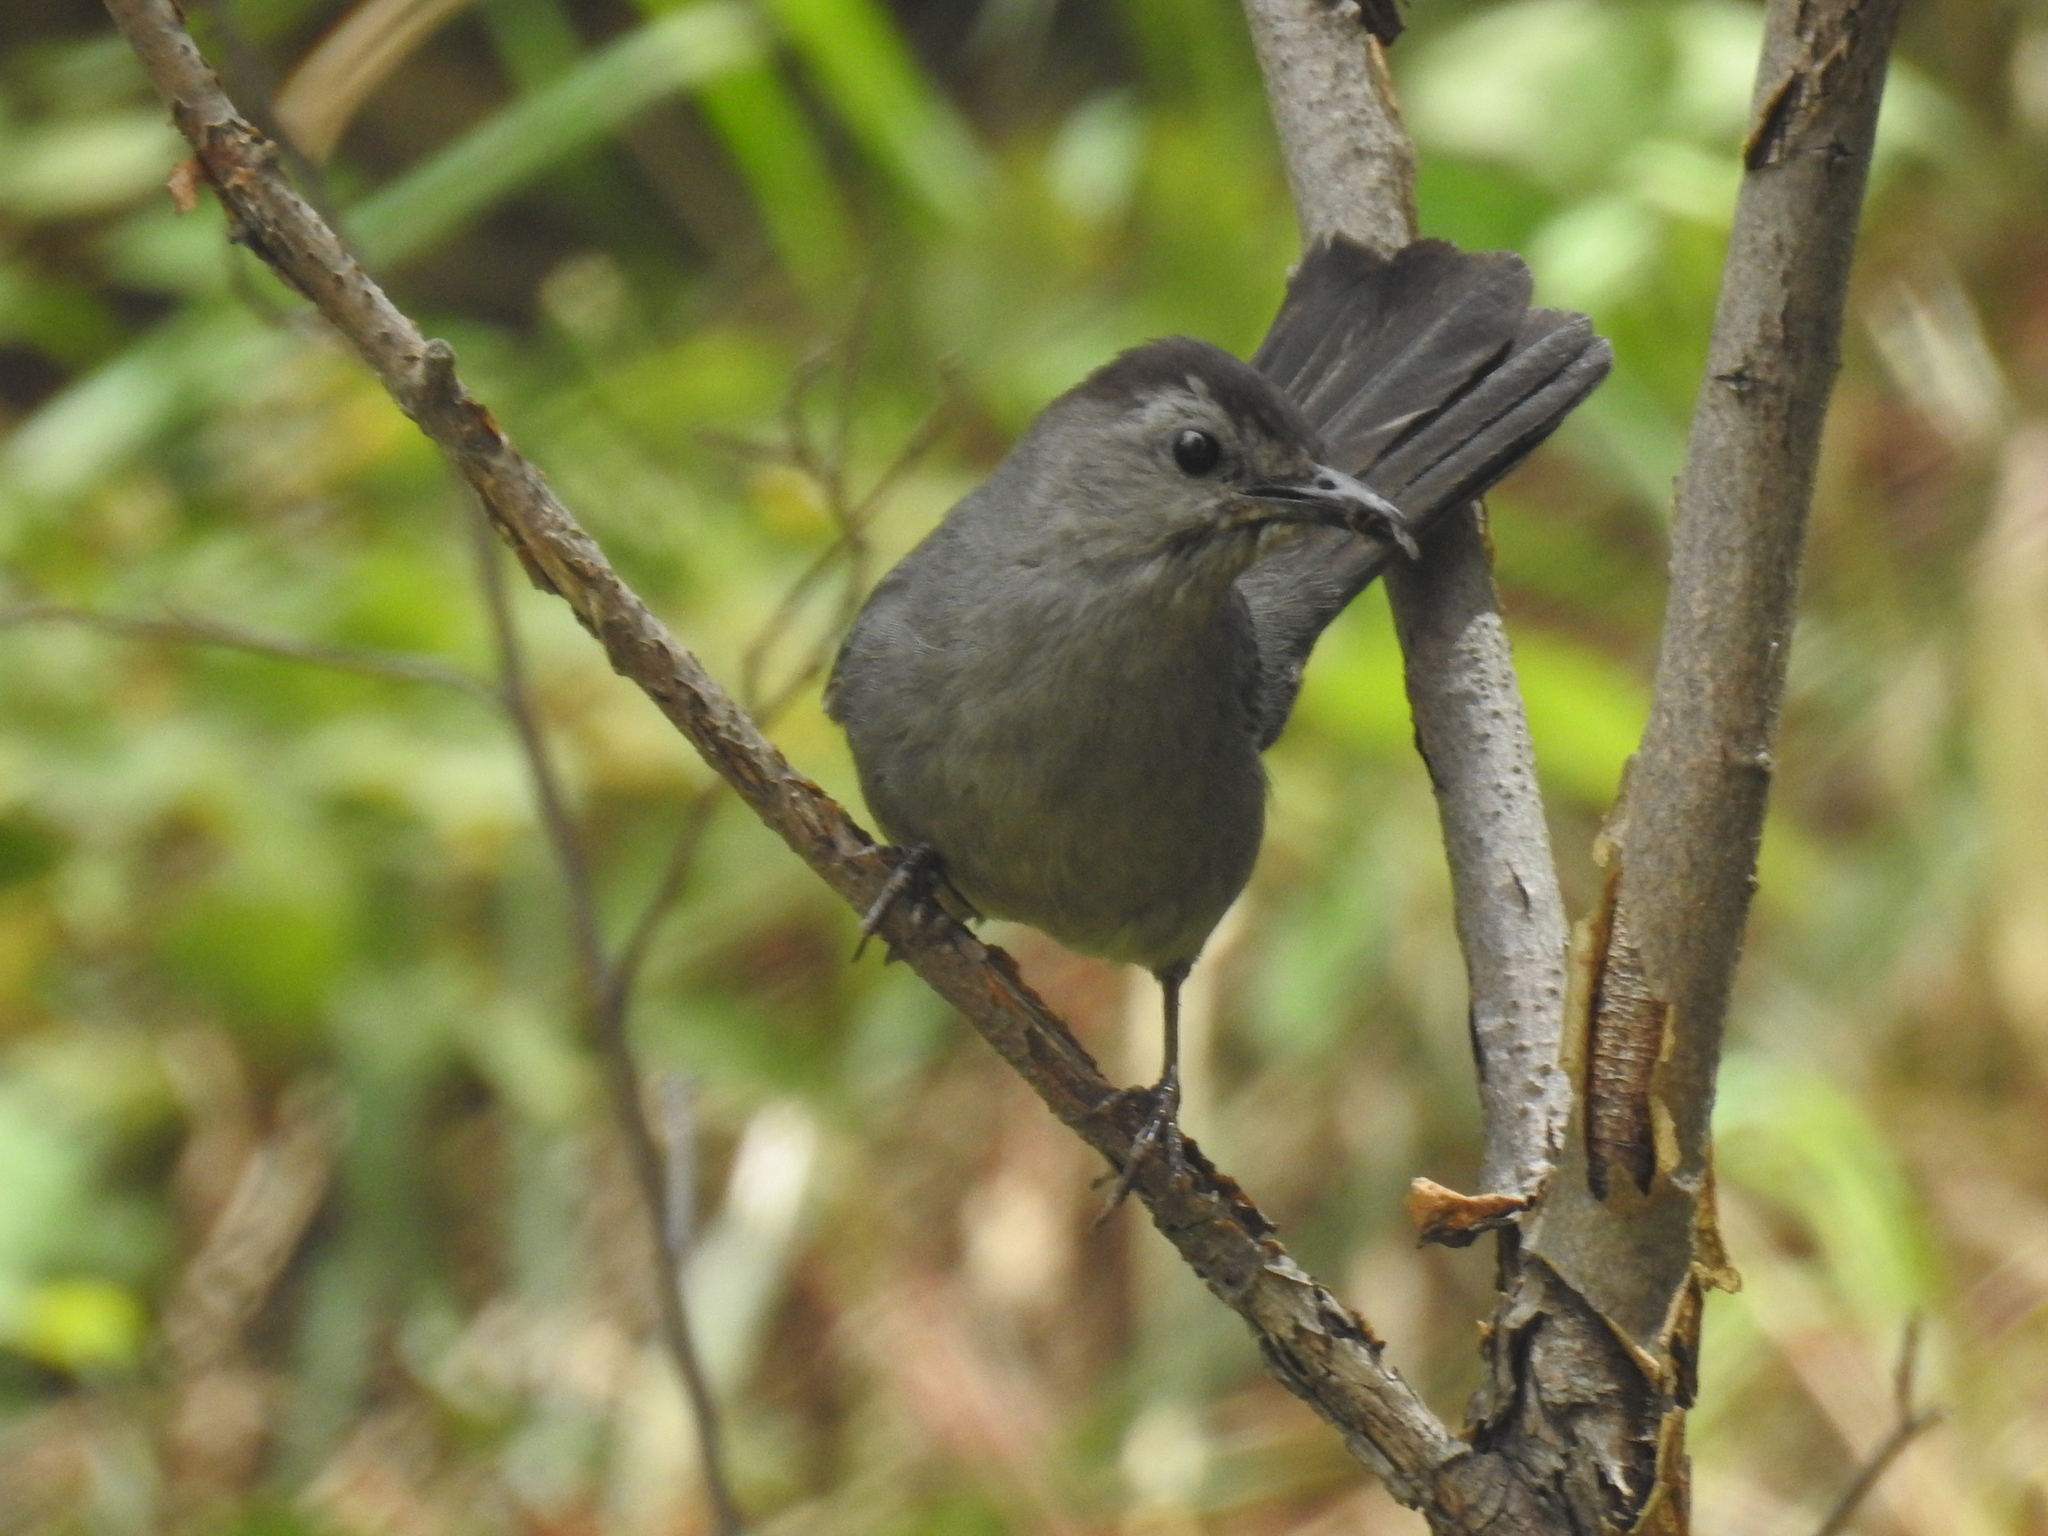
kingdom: Animalia
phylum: Chordata
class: Aves
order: Passeriformes
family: Mimidae
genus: Dumetella
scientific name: Dumetella carolinensis
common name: Gray catbird
